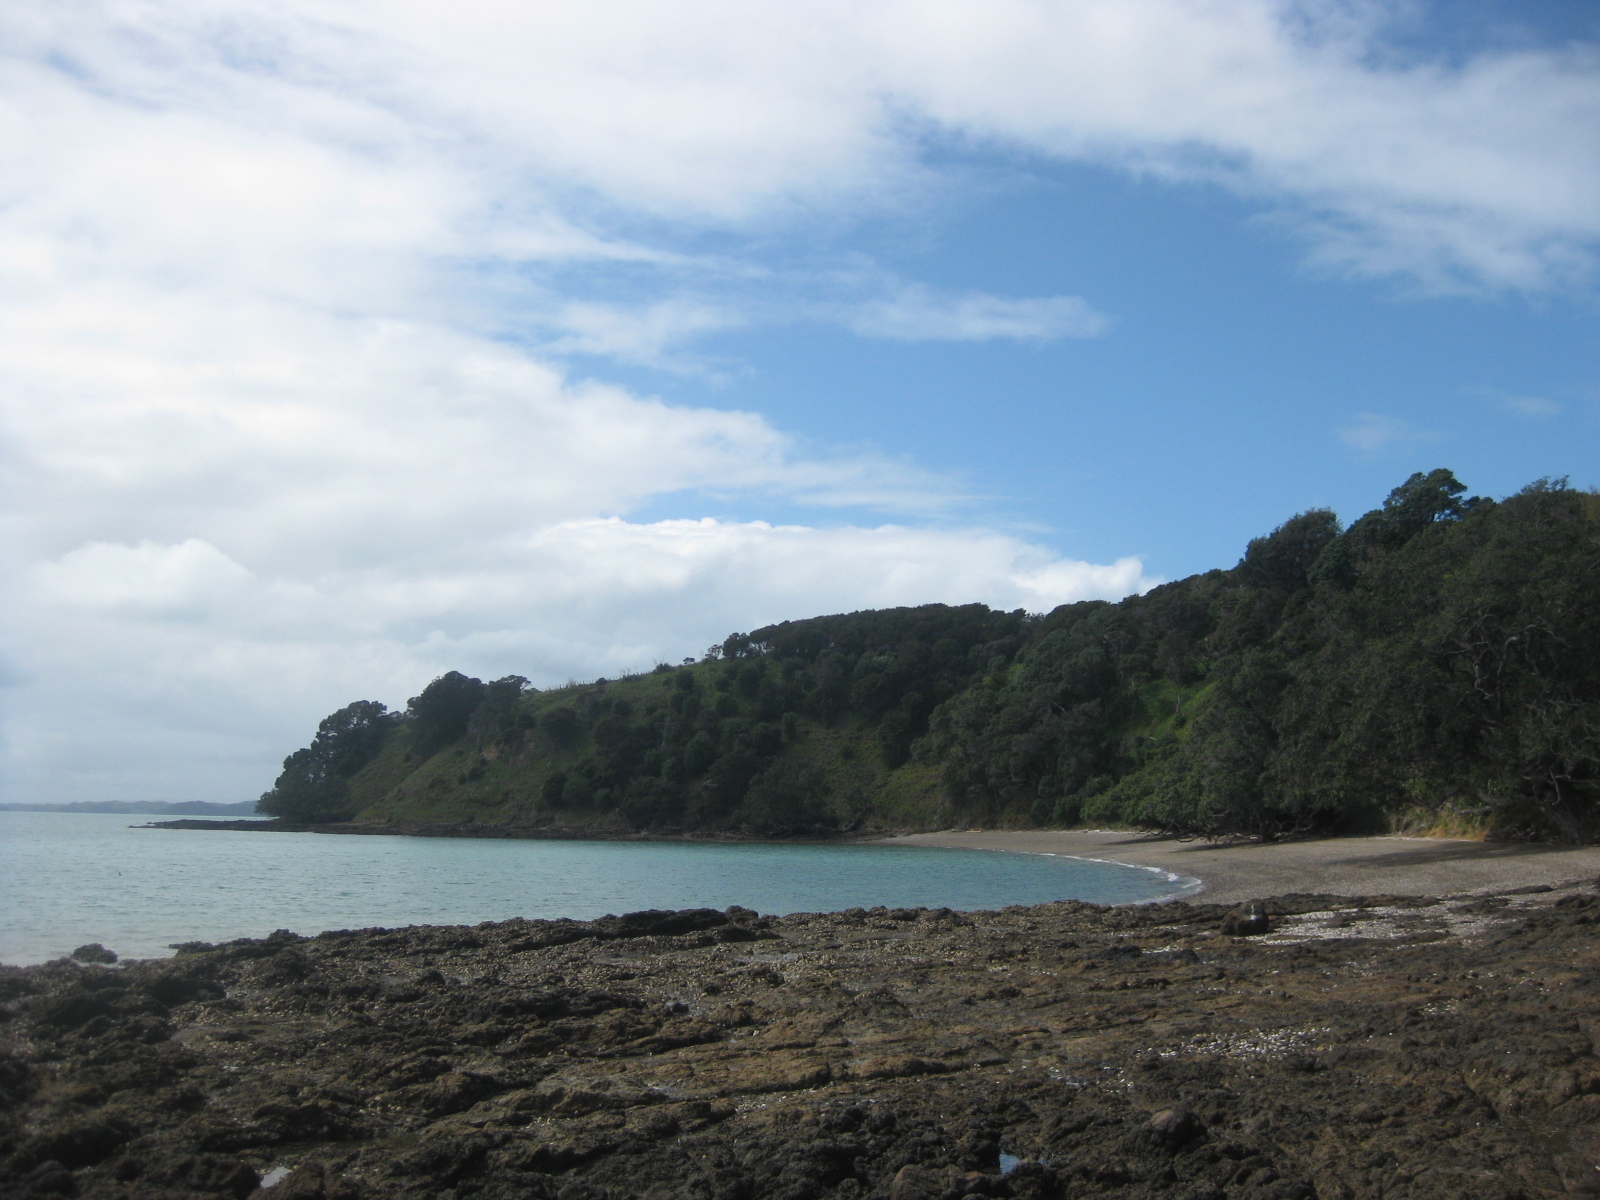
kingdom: Animalia
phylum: Mollusca
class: Polyplacophora
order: Chitonida
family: Chitonidae
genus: Sypharochiton
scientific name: Sypharochiton pelliserpentis
